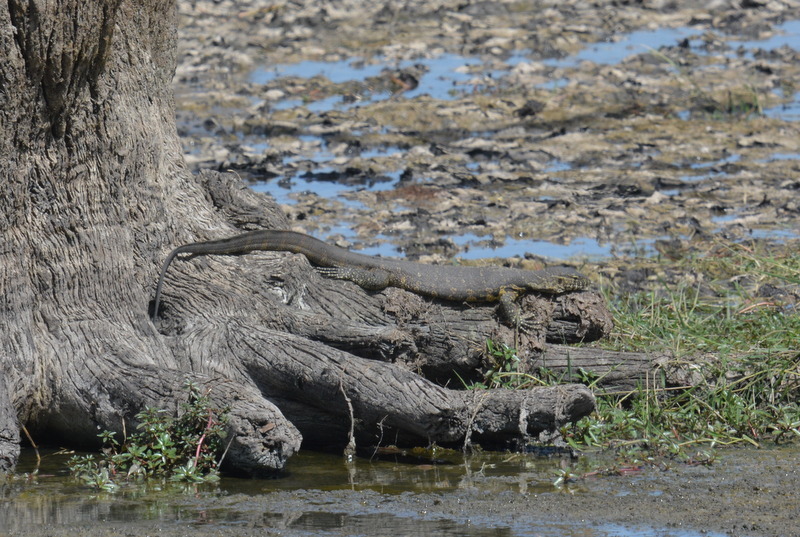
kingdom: Animalia
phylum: Chordata
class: Squamata
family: Varanidae
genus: Varanus
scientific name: Varanus niloticus
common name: Nile monitor
